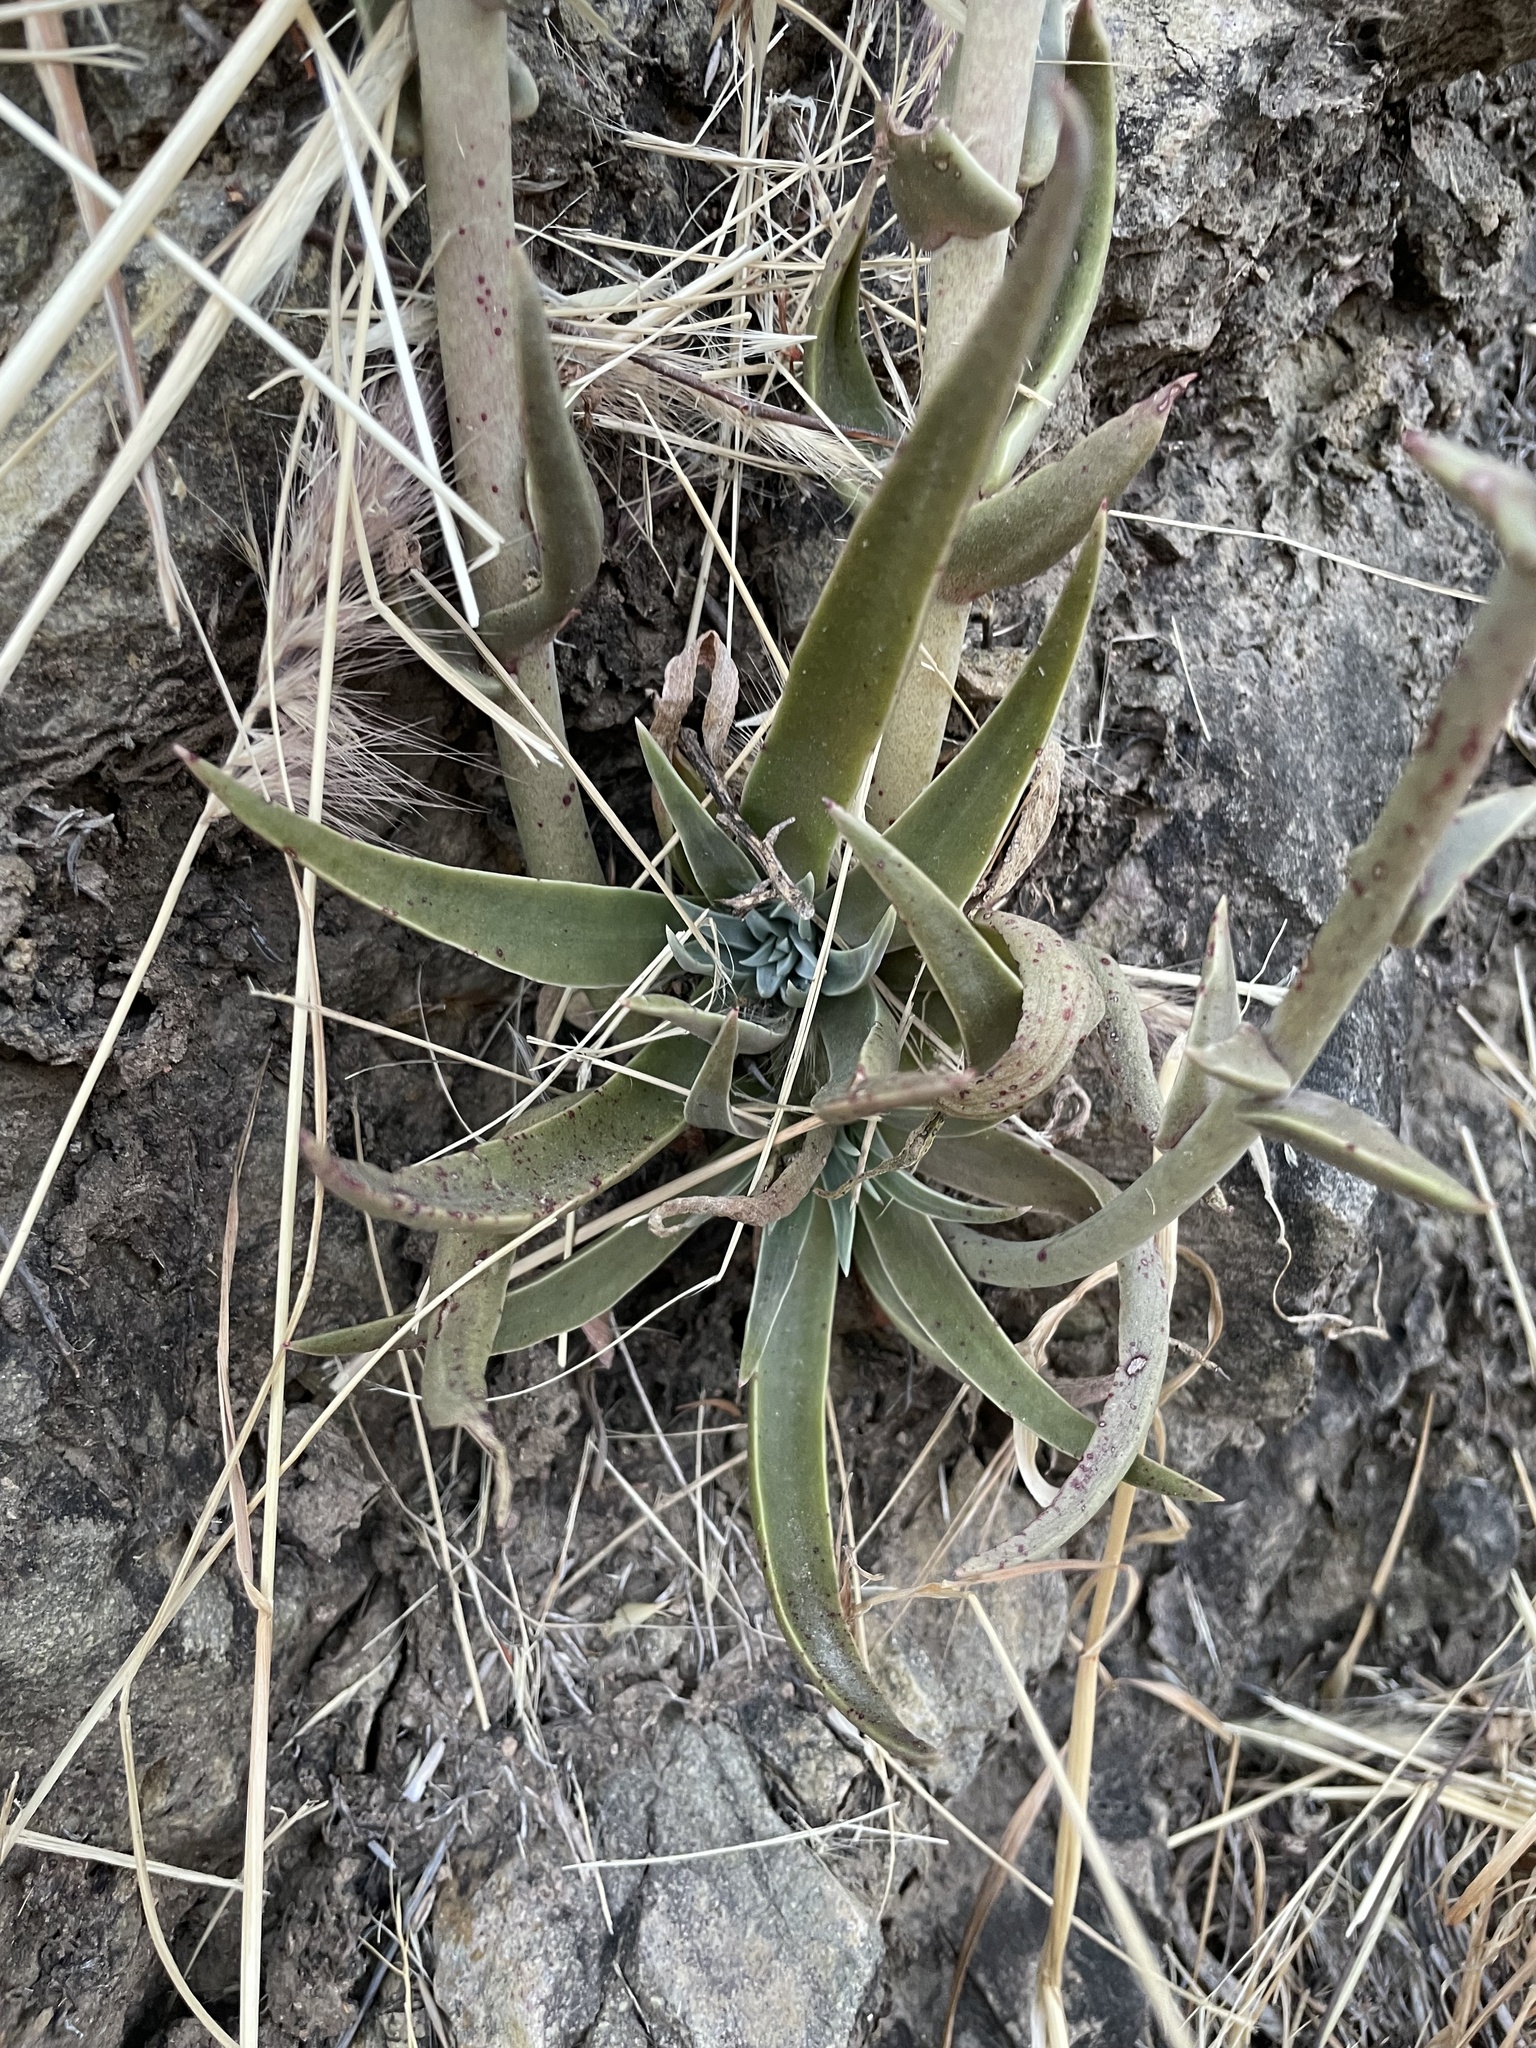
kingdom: Plantae
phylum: Tracheophyta
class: Magnoliopsida
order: Saxifragales
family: Crassulaceae
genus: Dudleya
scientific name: Dudleya lanceolata
